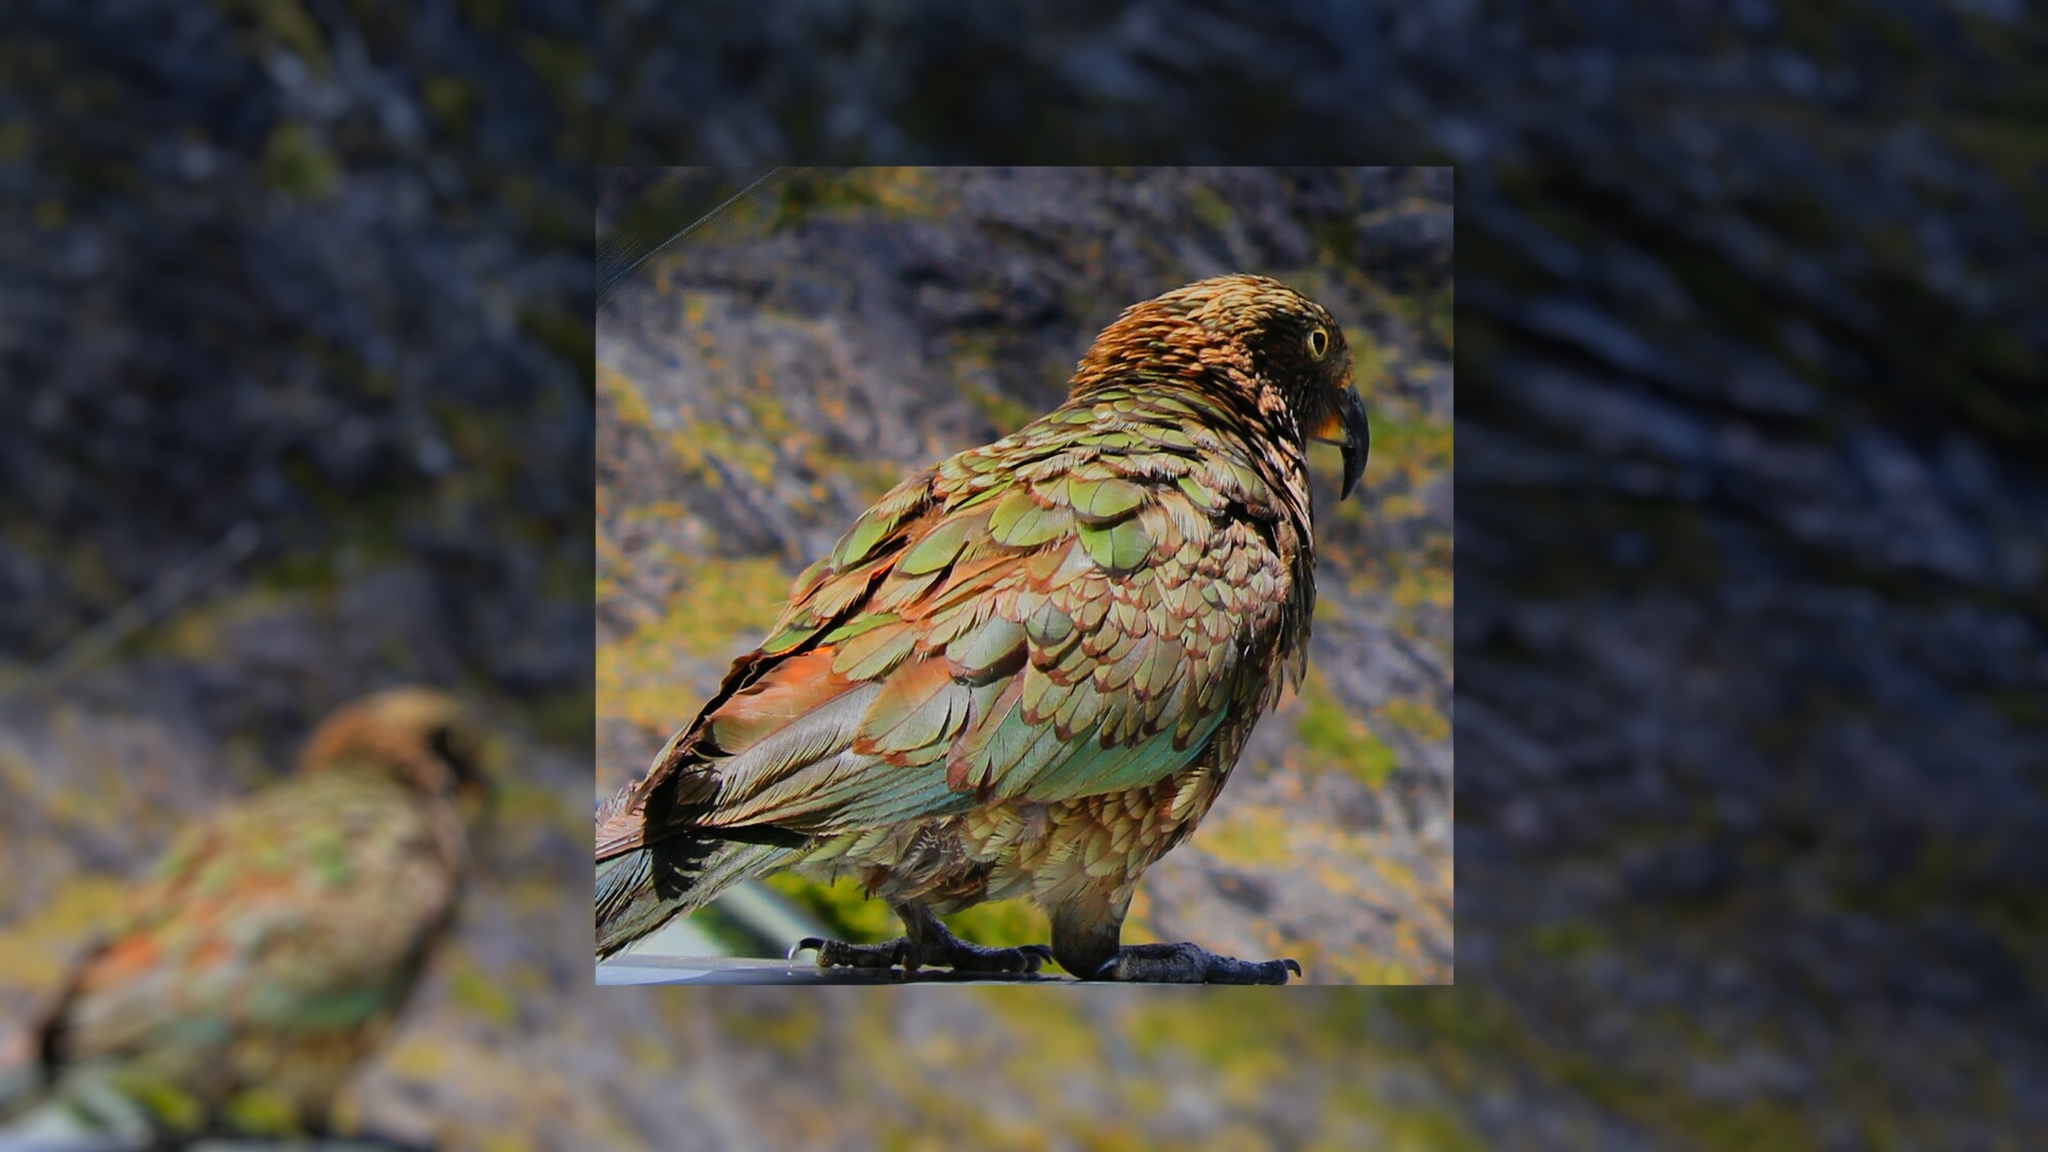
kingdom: Animalia
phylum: Chordata
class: Aves
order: Psittaciformes
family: Psittacidae
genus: Nestor
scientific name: Nestor notabilis
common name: Kea
